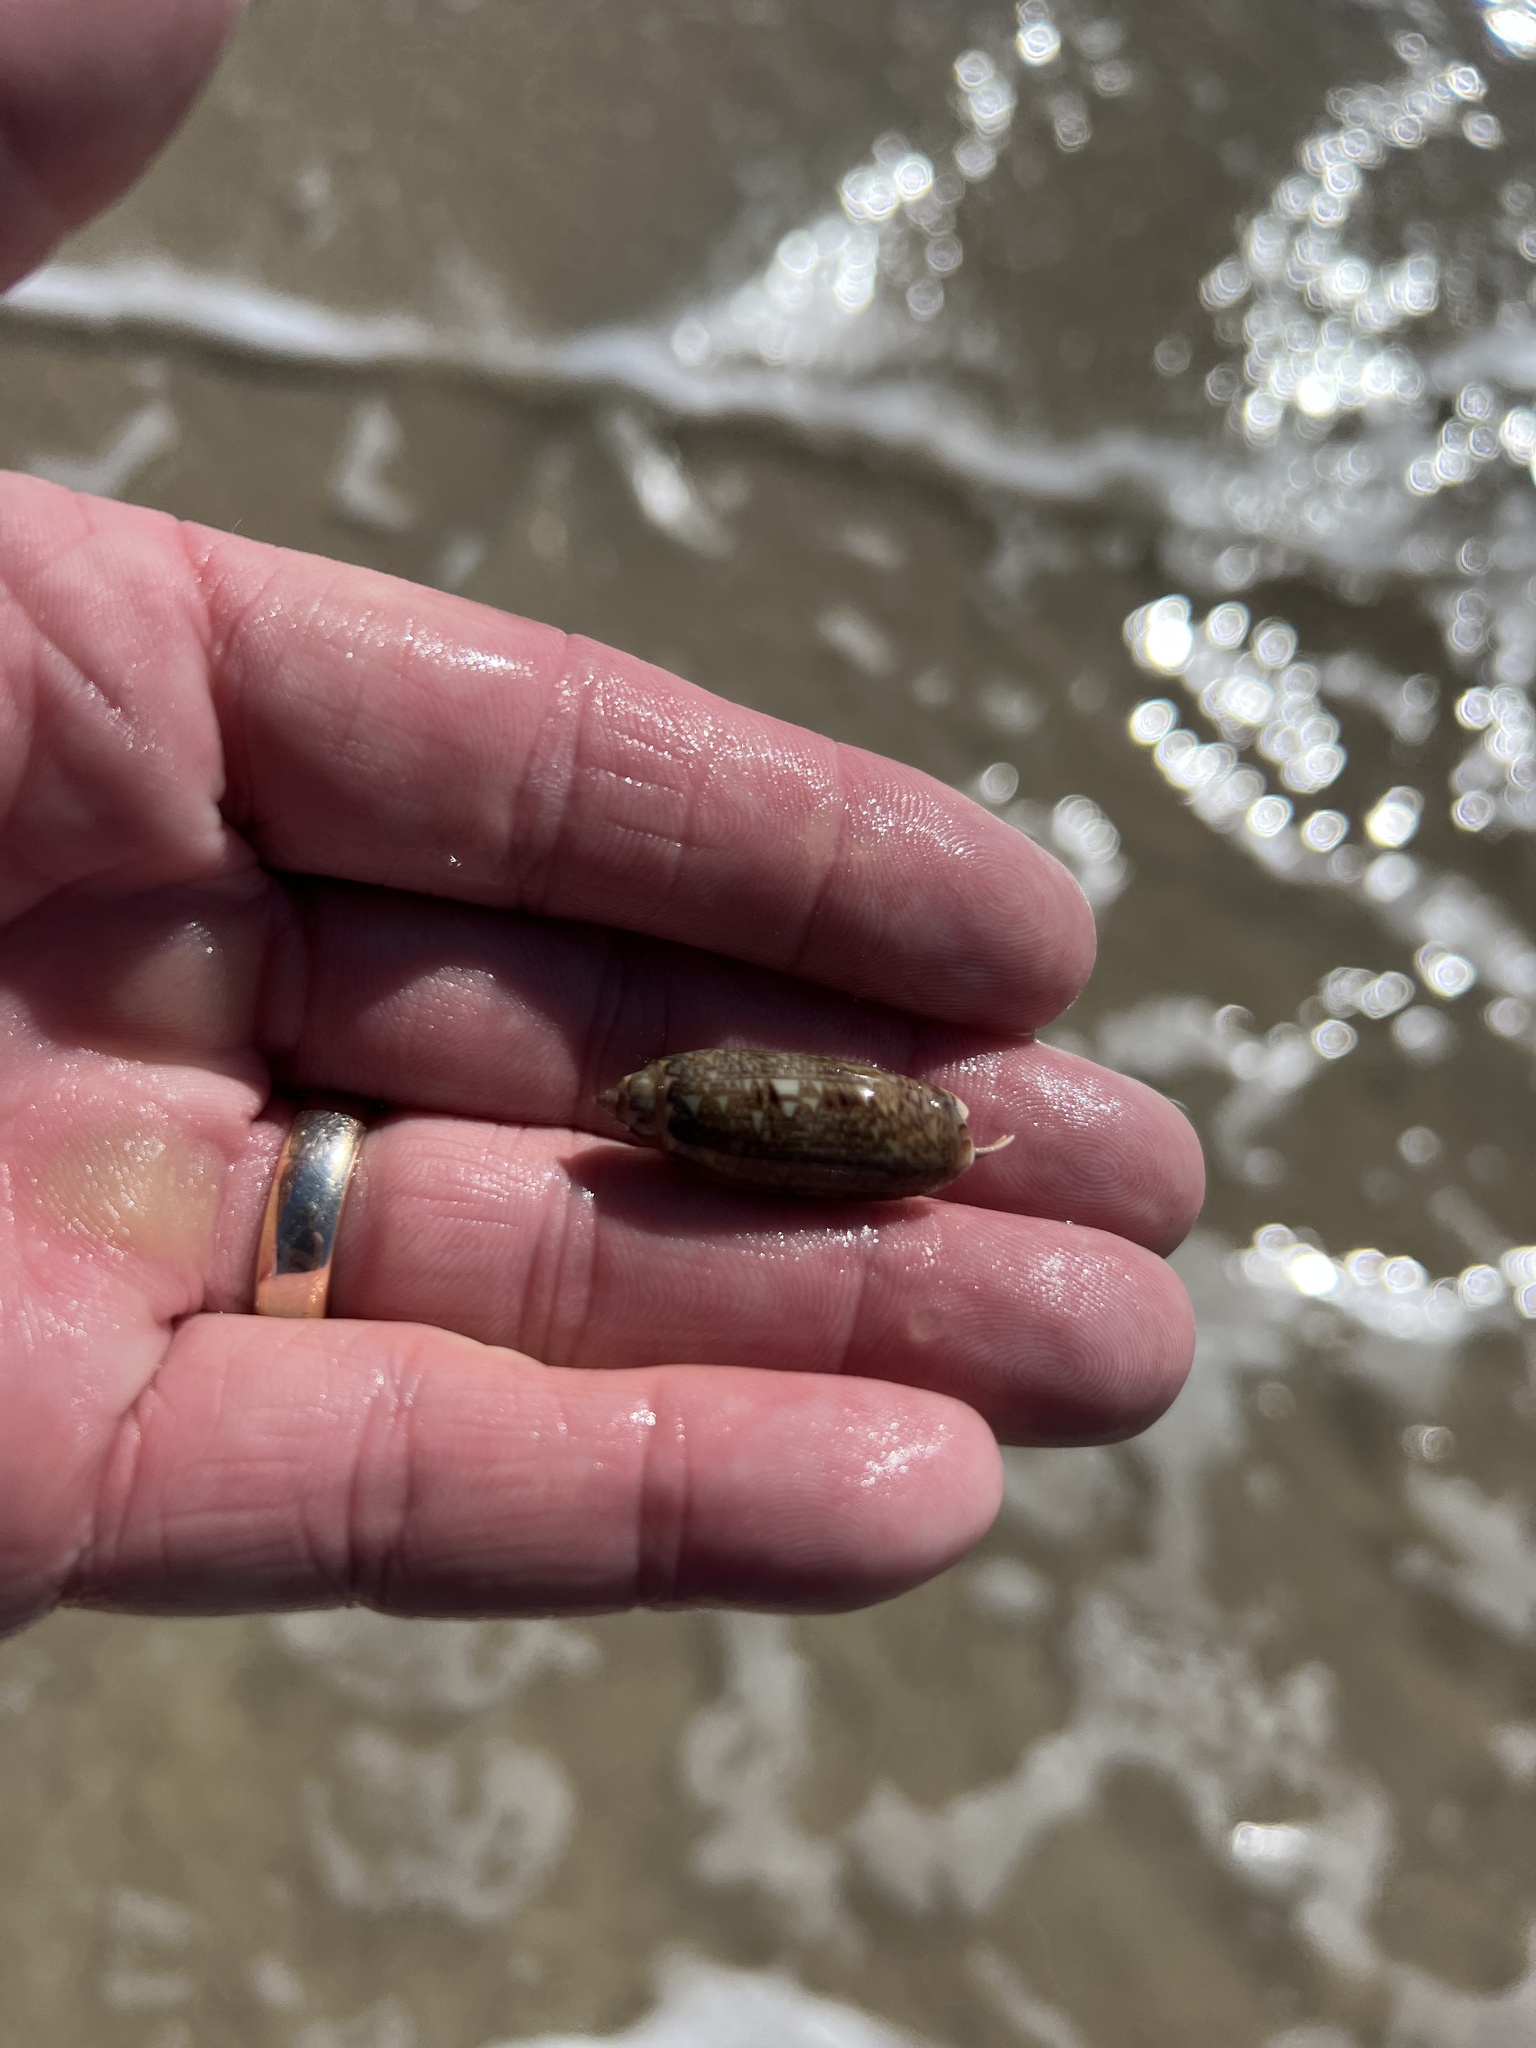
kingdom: Animalia
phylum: Mollusca
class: Gastropoda
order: Neogastropoda
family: Olividae
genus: Oliva
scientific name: Oliva sayana
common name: Lettered olive
